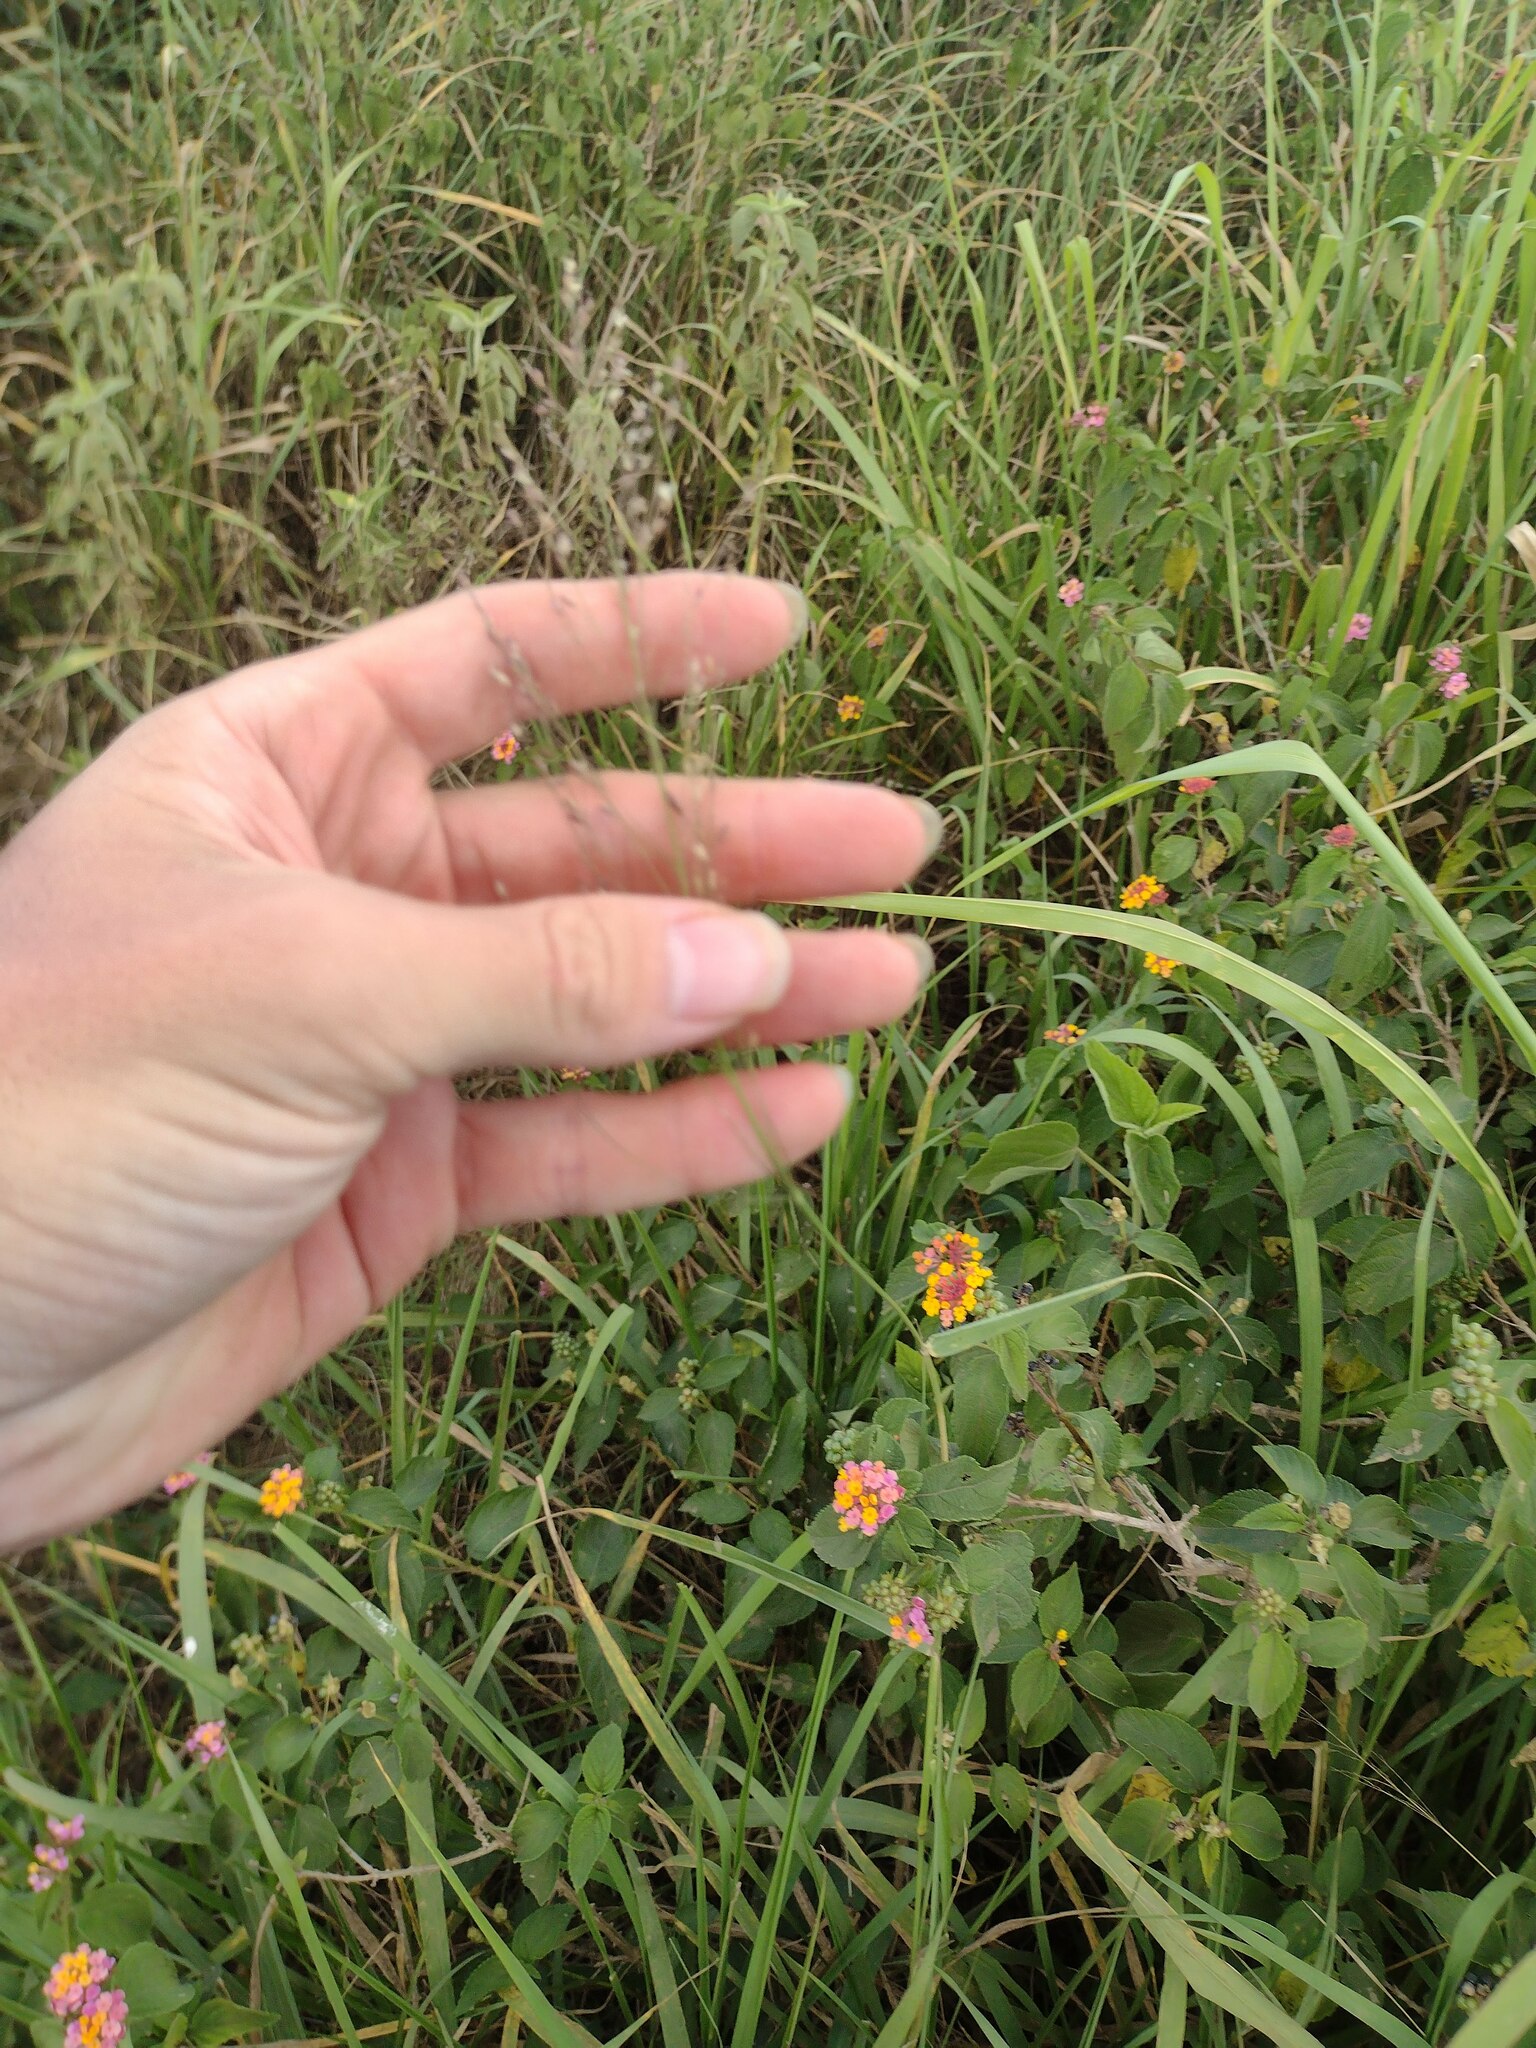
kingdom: Plantae
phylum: Tracheophyta
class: Liliopsida
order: Poales
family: Poaceae
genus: Megathyrsus
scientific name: Megathyrsus maximus
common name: Guineagrass
